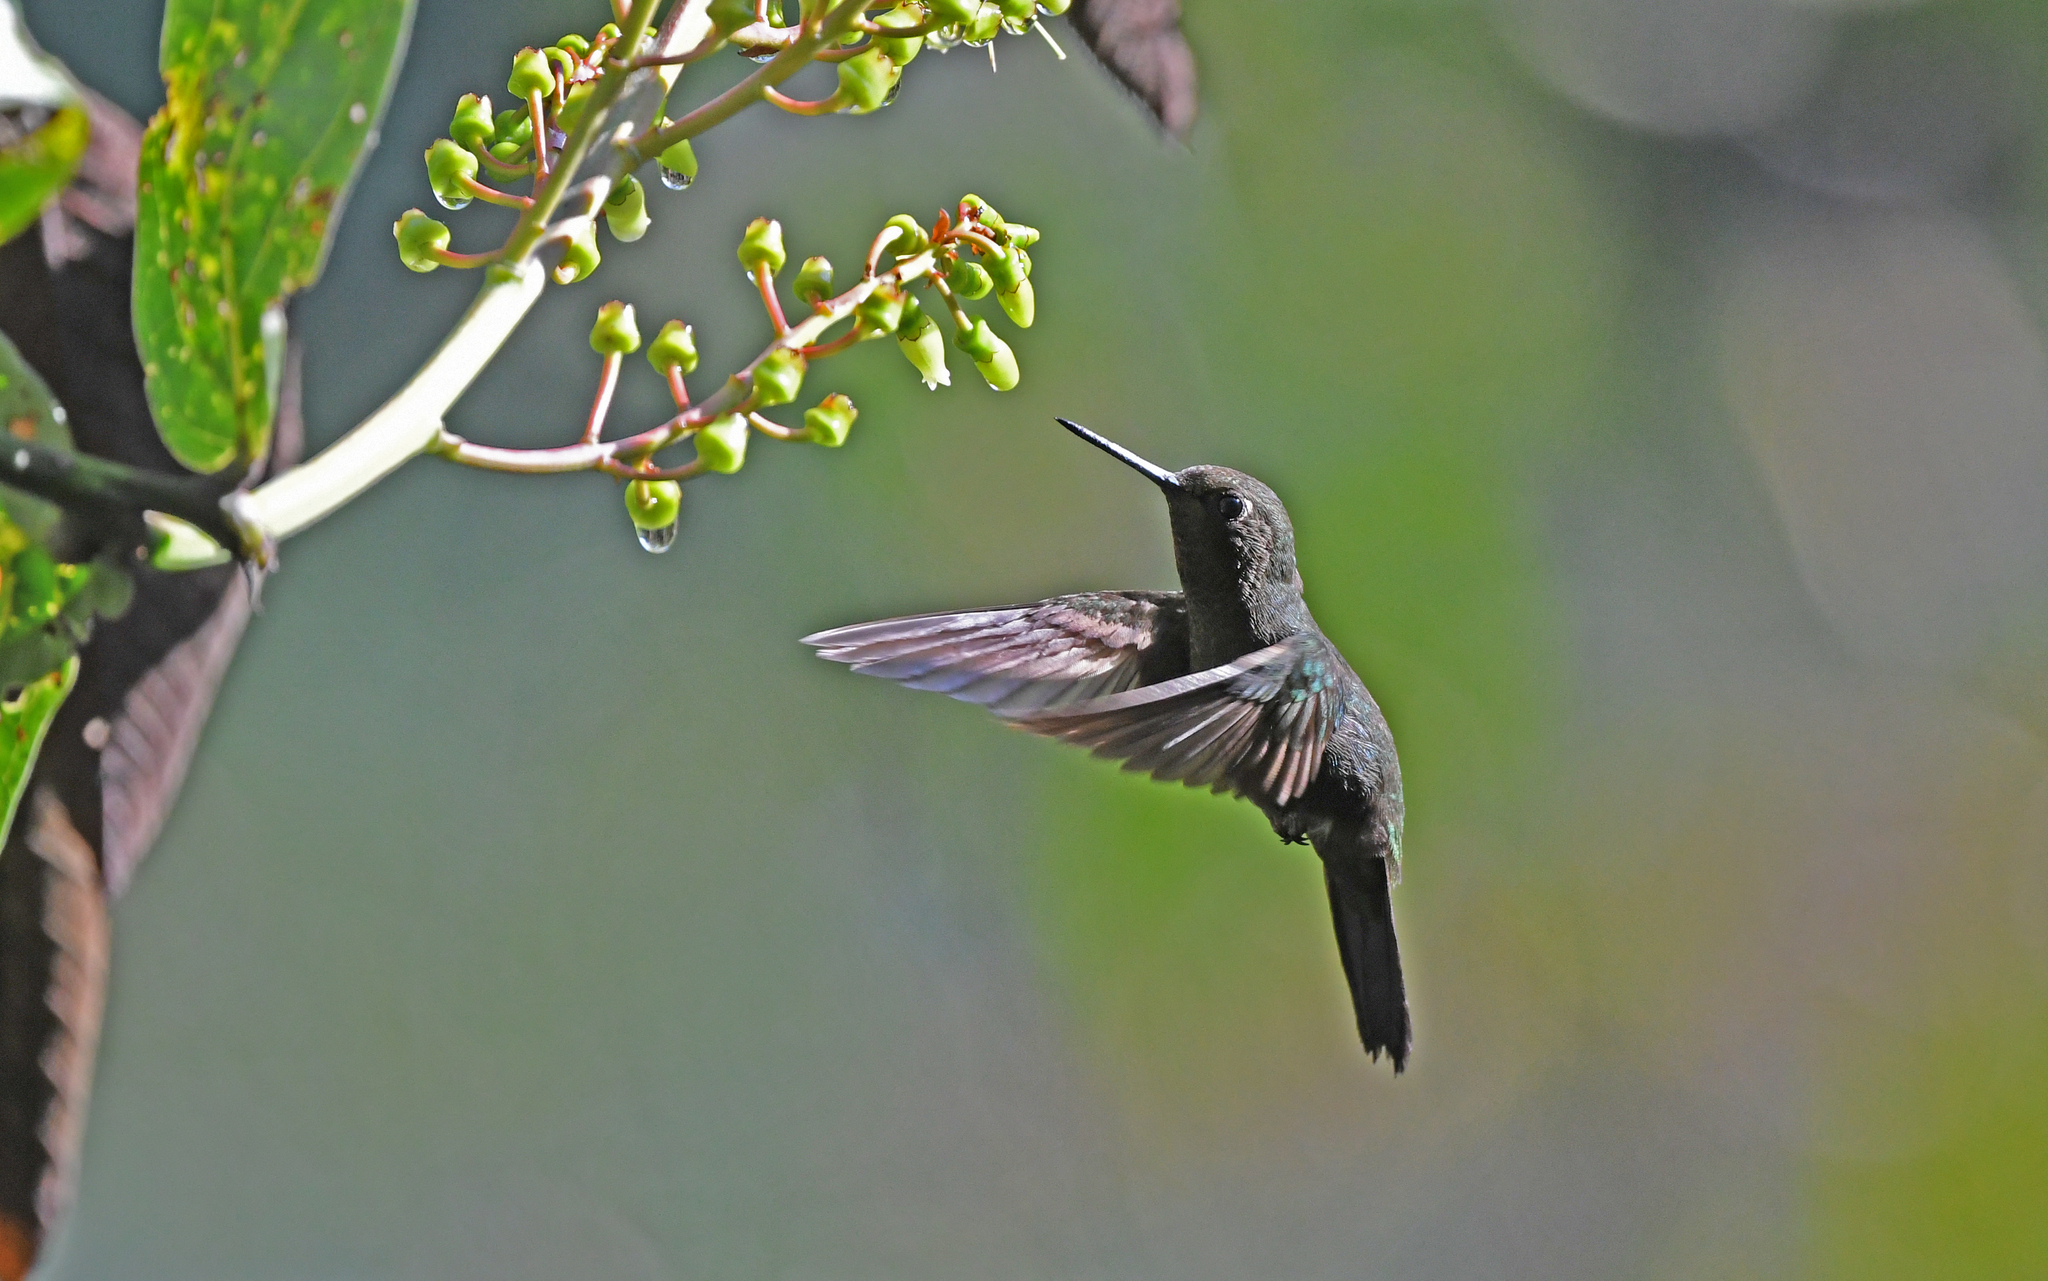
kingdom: Animalia
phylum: Chordata
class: Aves
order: Apodiformes
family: Trochilidae
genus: Haplophaedia
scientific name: Haplophaedia assimilis
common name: Buff-thighed puffleg
